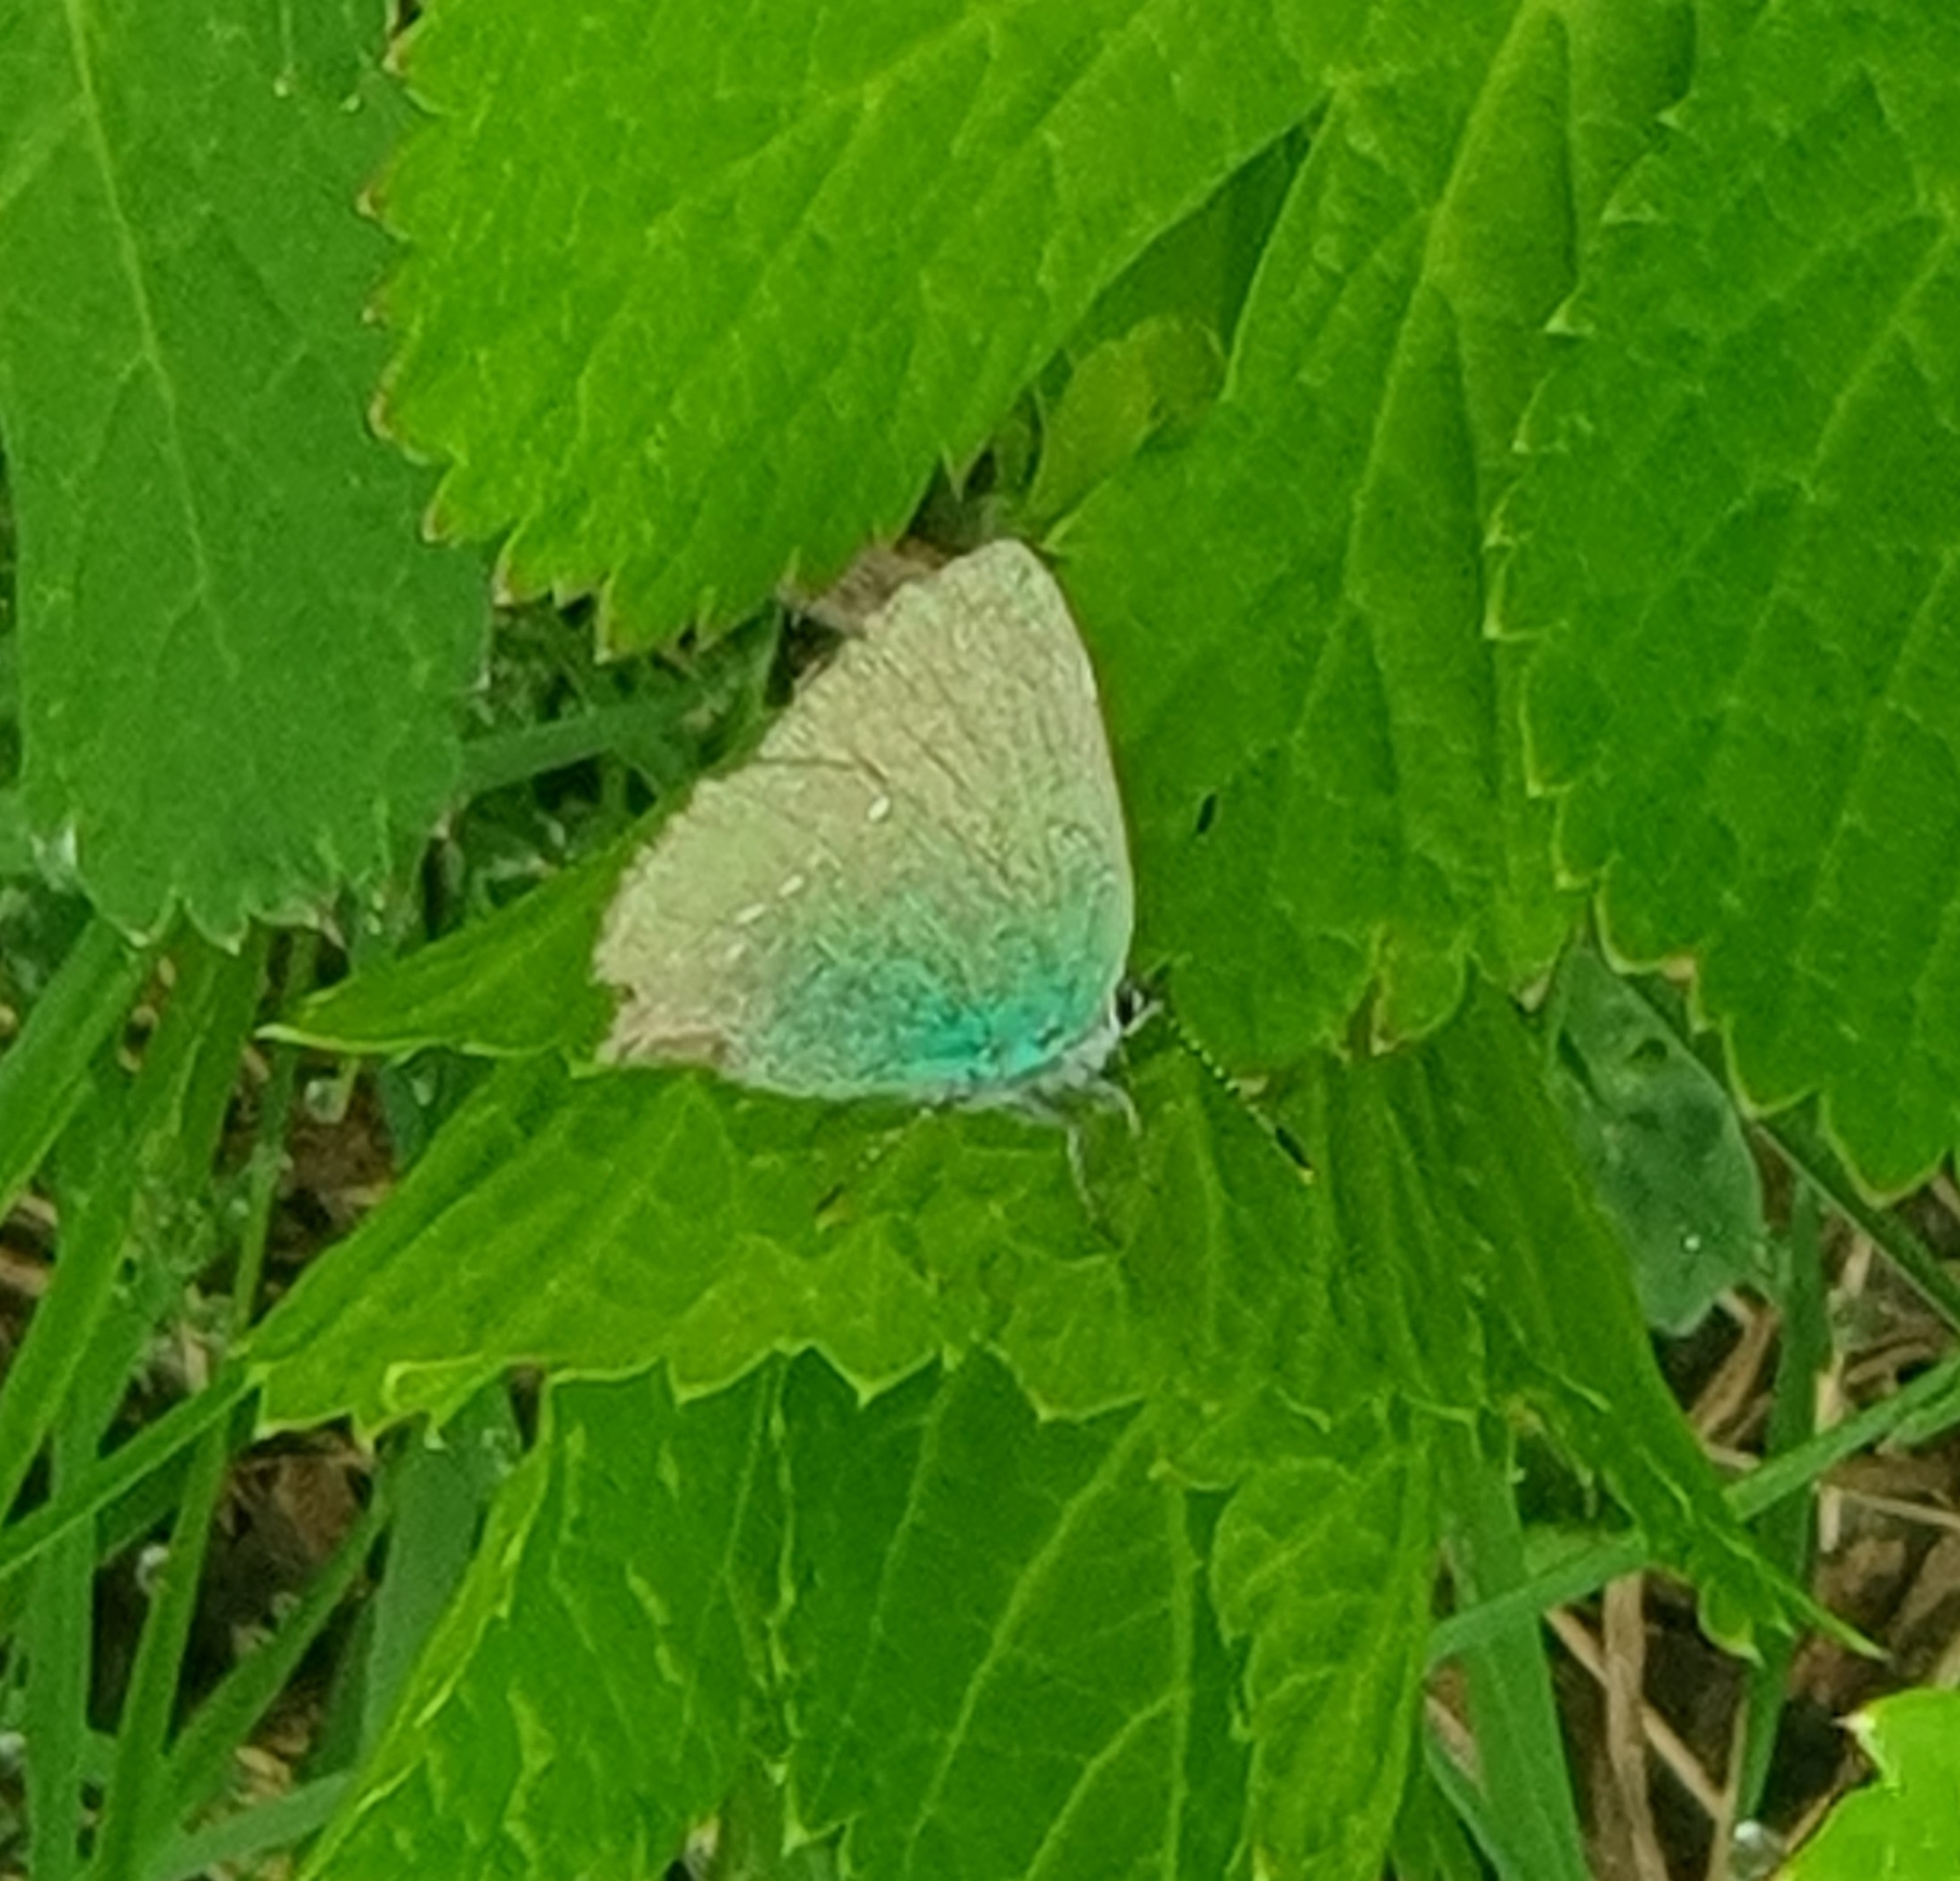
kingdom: Animalia
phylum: Arthropoda
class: Insecta
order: Lepidoptera
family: Lycaenidae
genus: Callophrys
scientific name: Callophrys rubi
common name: Green hairstreak
